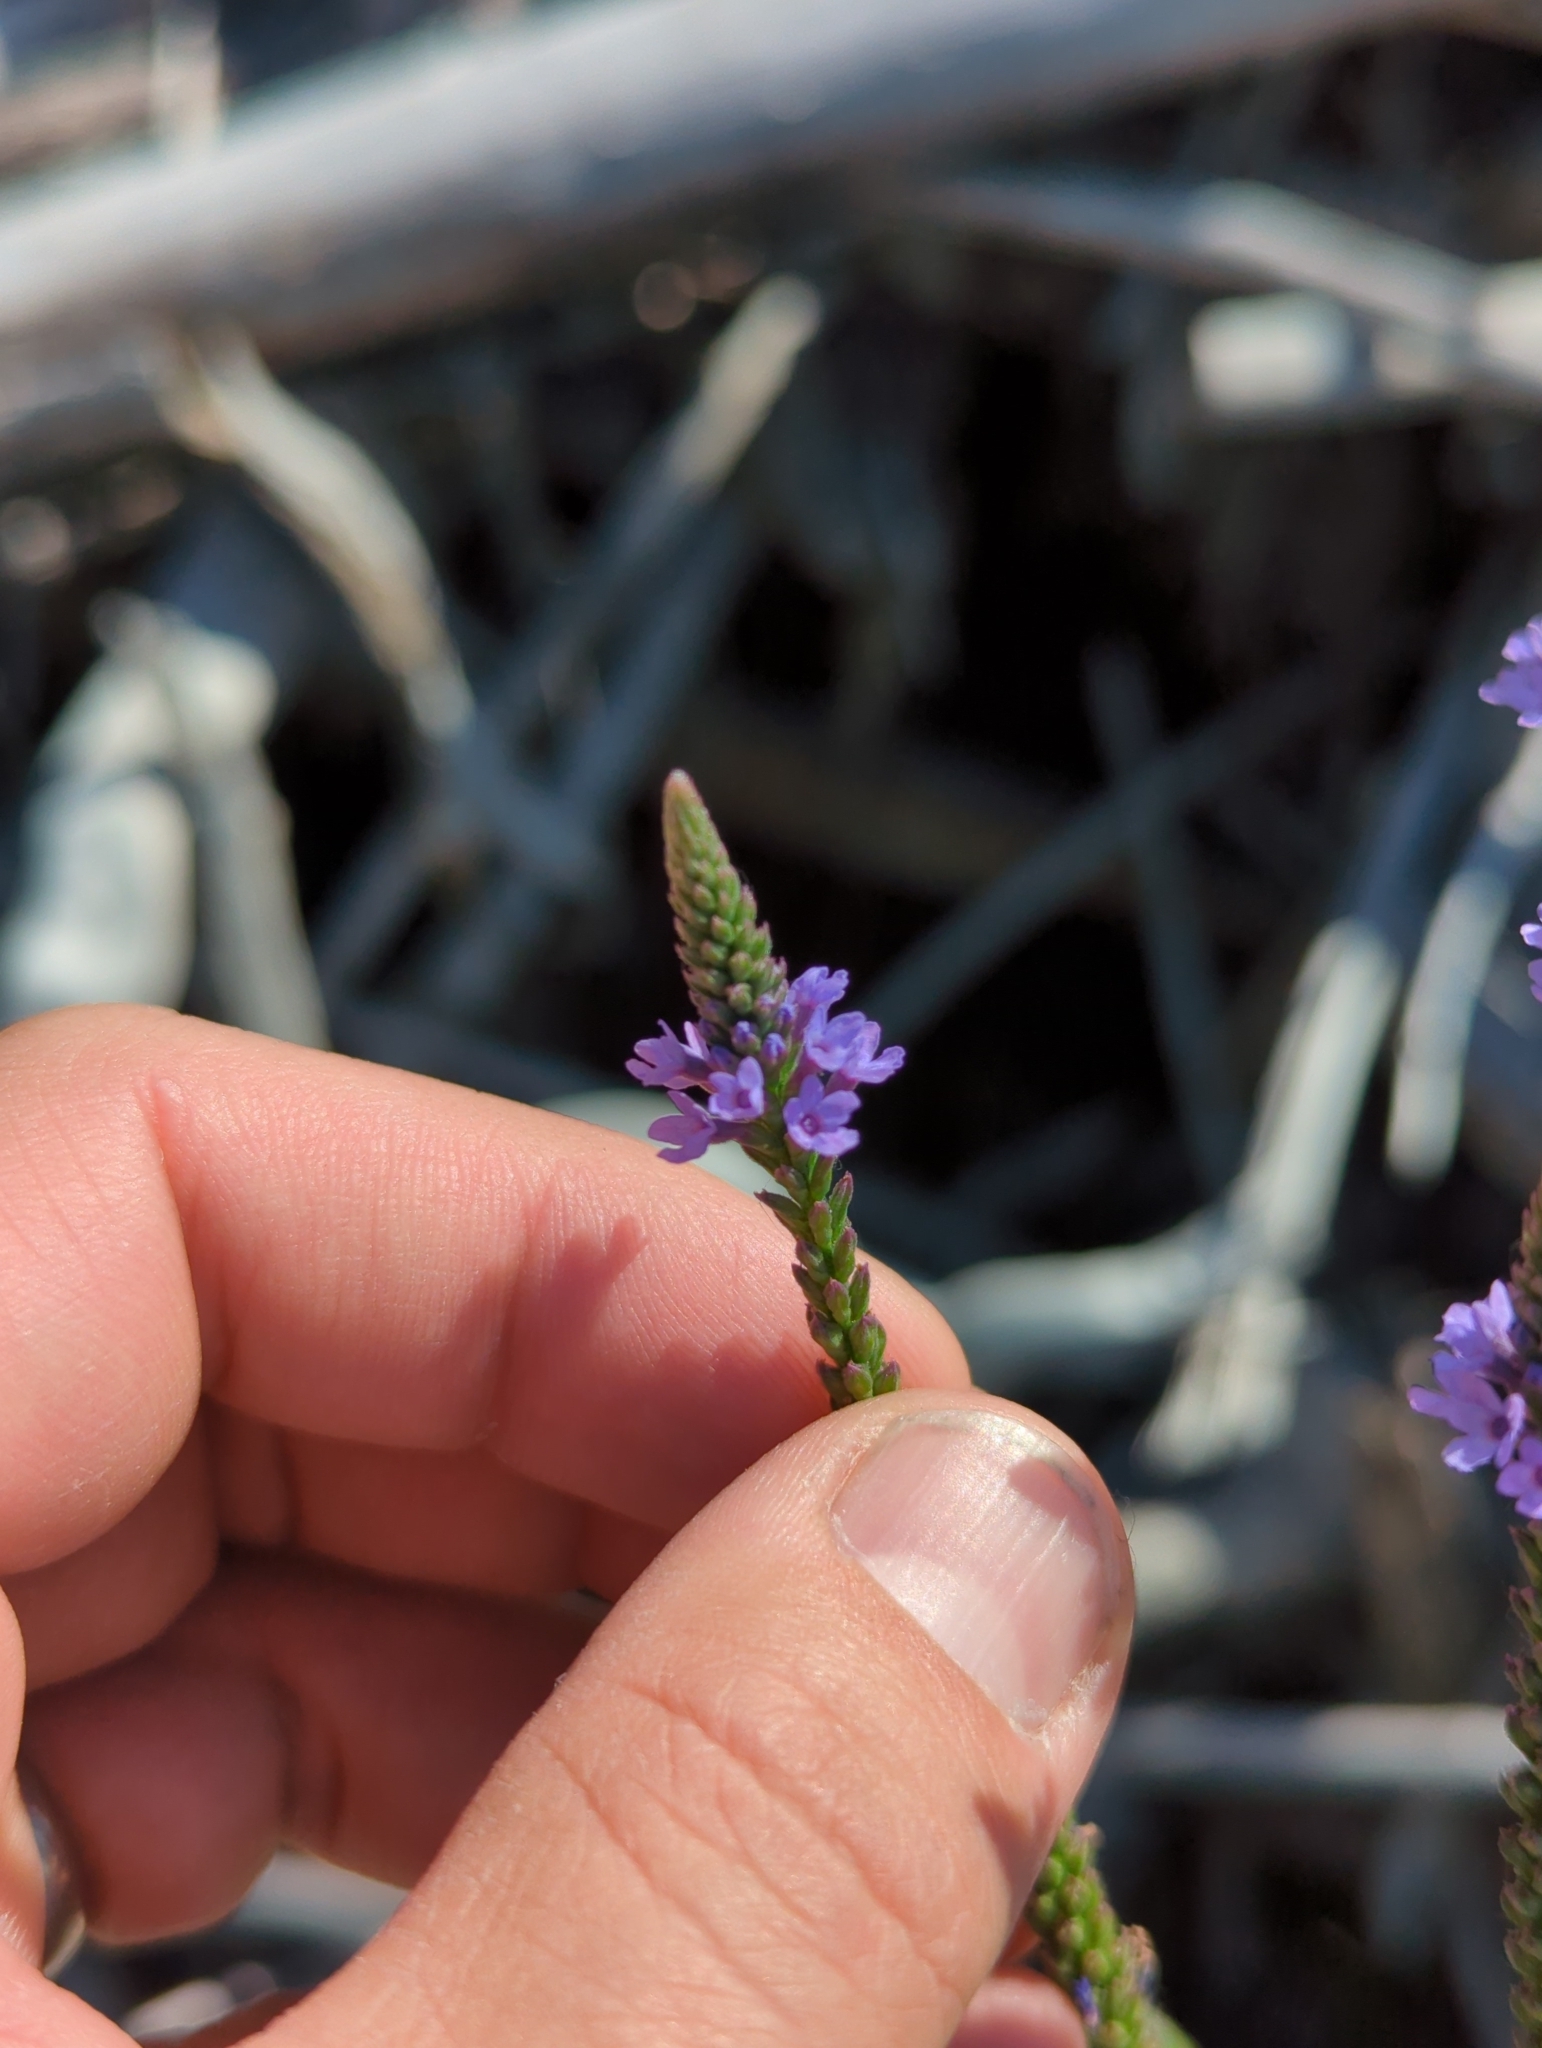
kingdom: Plantae
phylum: Tracheophyta
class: Magnoliopsida
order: Lamiales
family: Verbenaceae
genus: Verbena
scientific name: Verbena hastata
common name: American blue vervain
